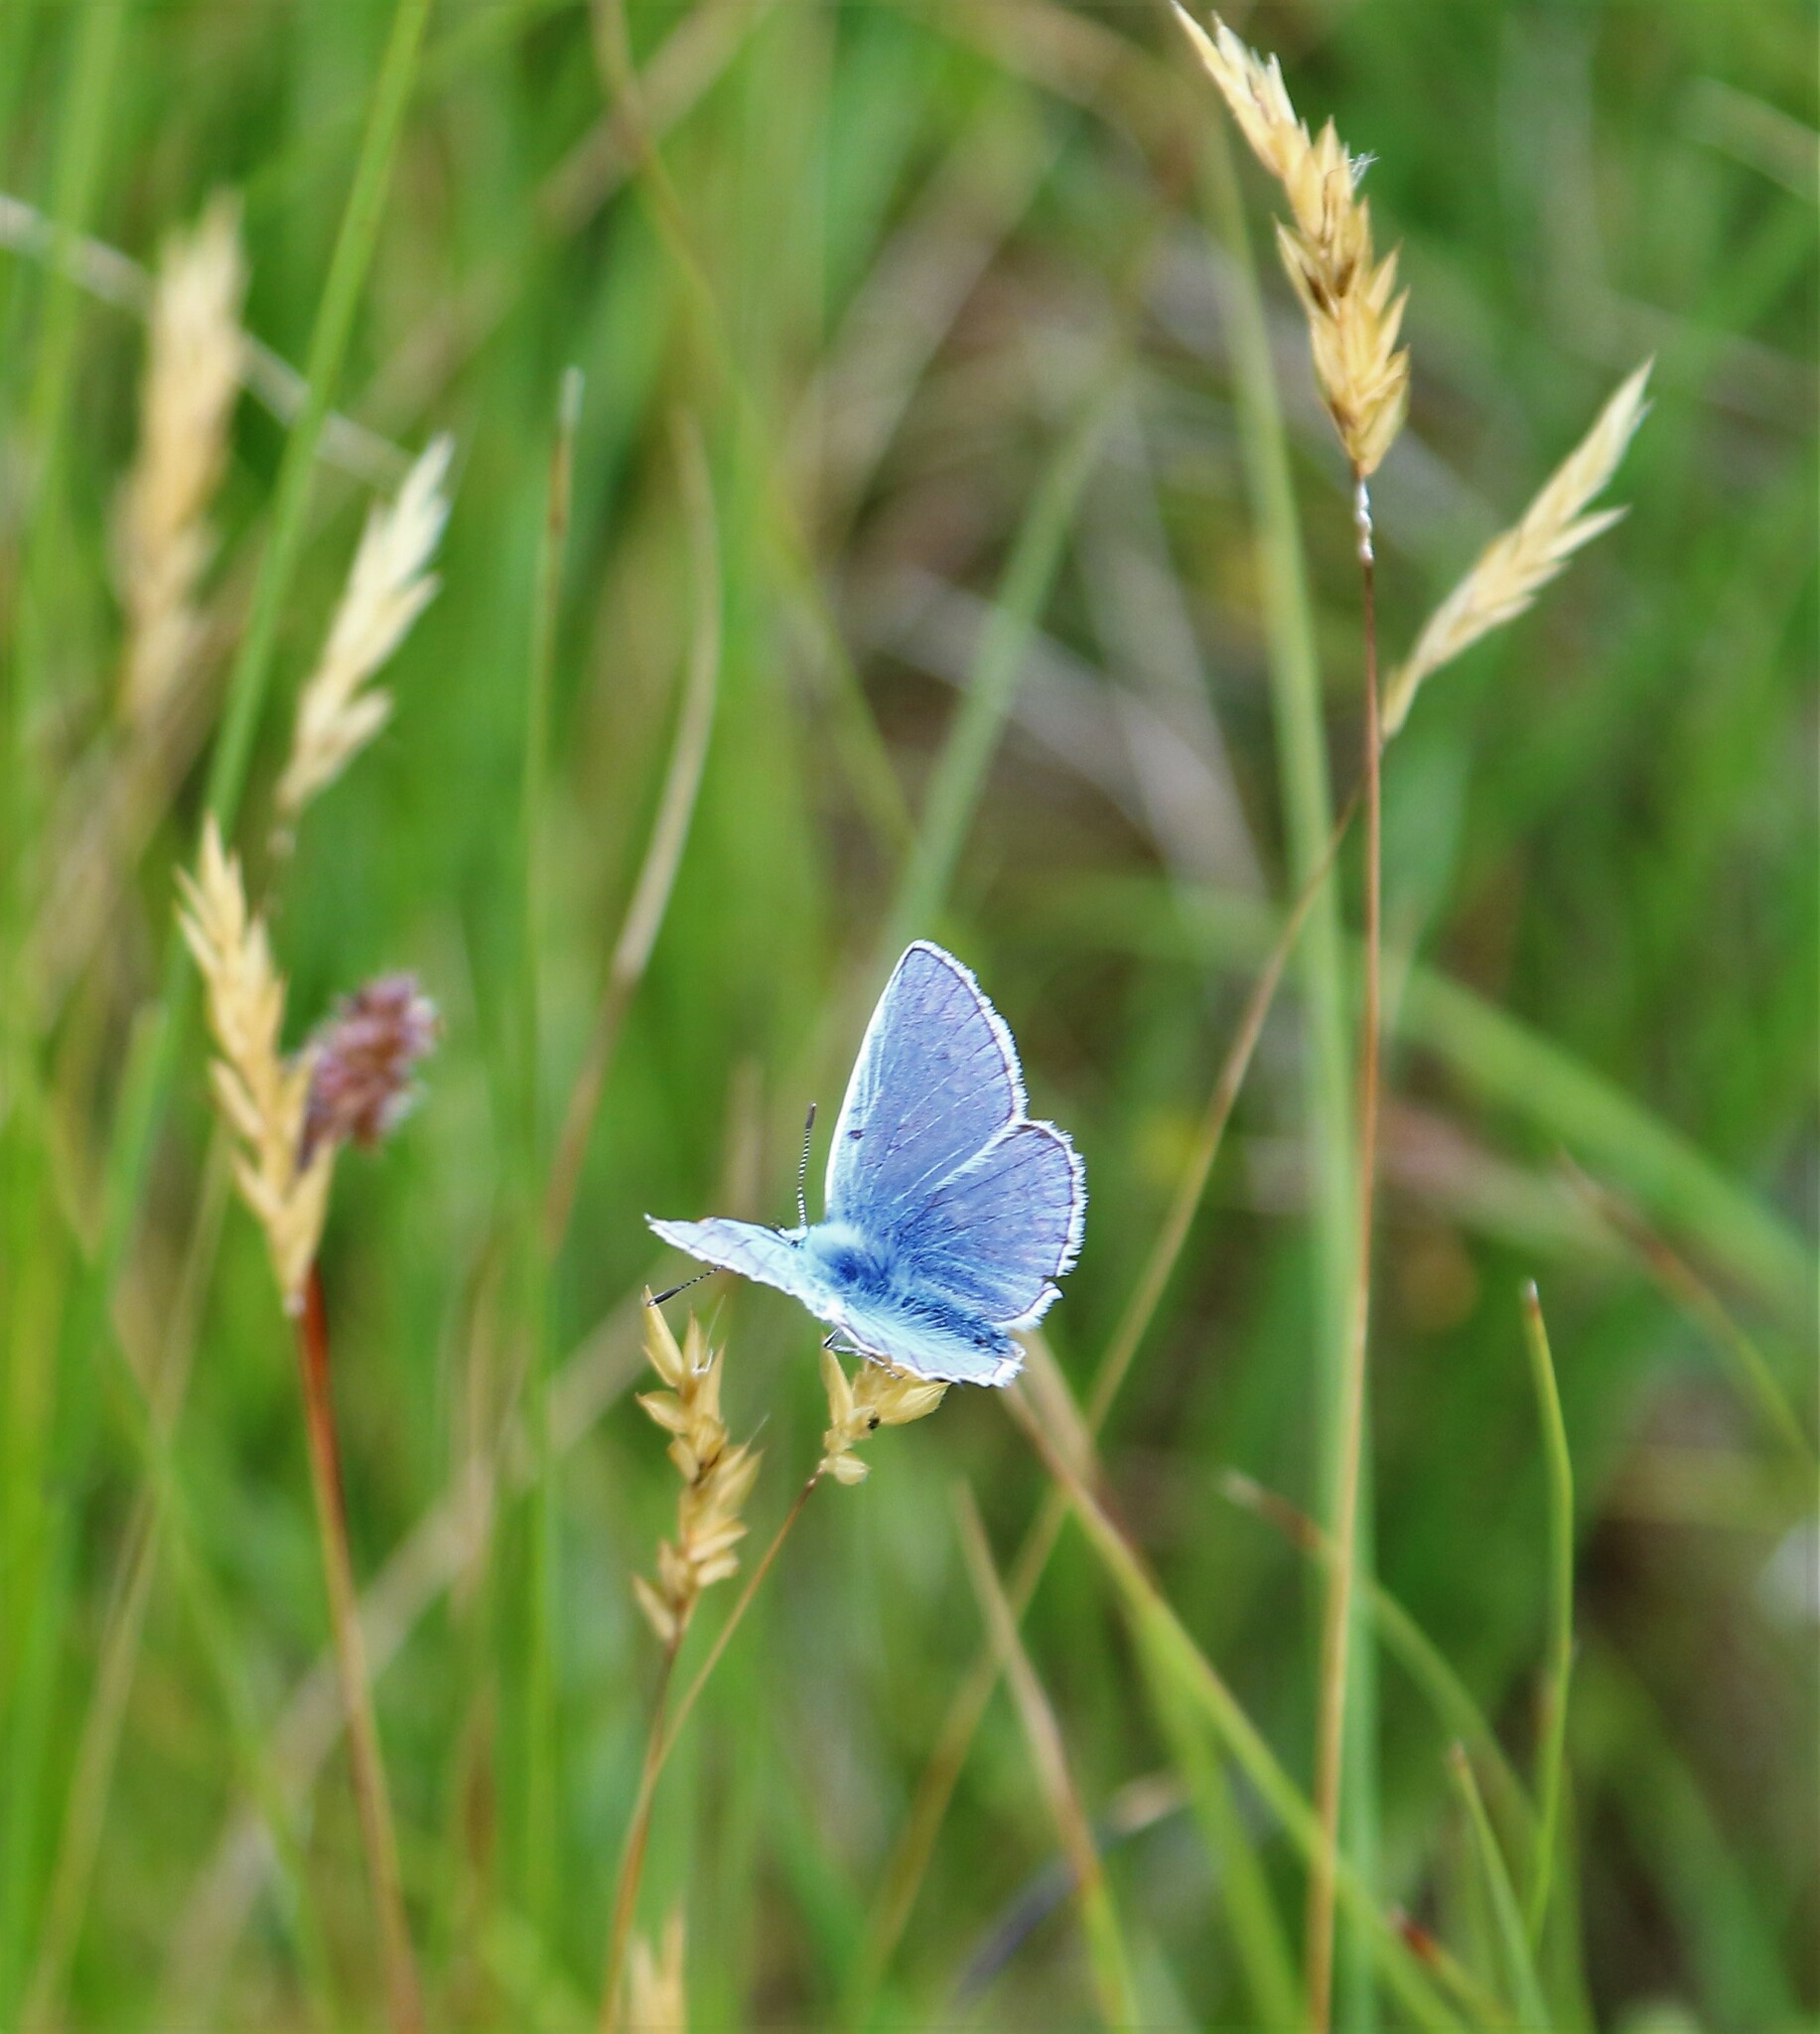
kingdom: Animalia
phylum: Arthropoda
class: Insecta
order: Lepidoptera
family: Lycaenidae
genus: Polyommatus
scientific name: Polyommatus icarus
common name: Common blue
